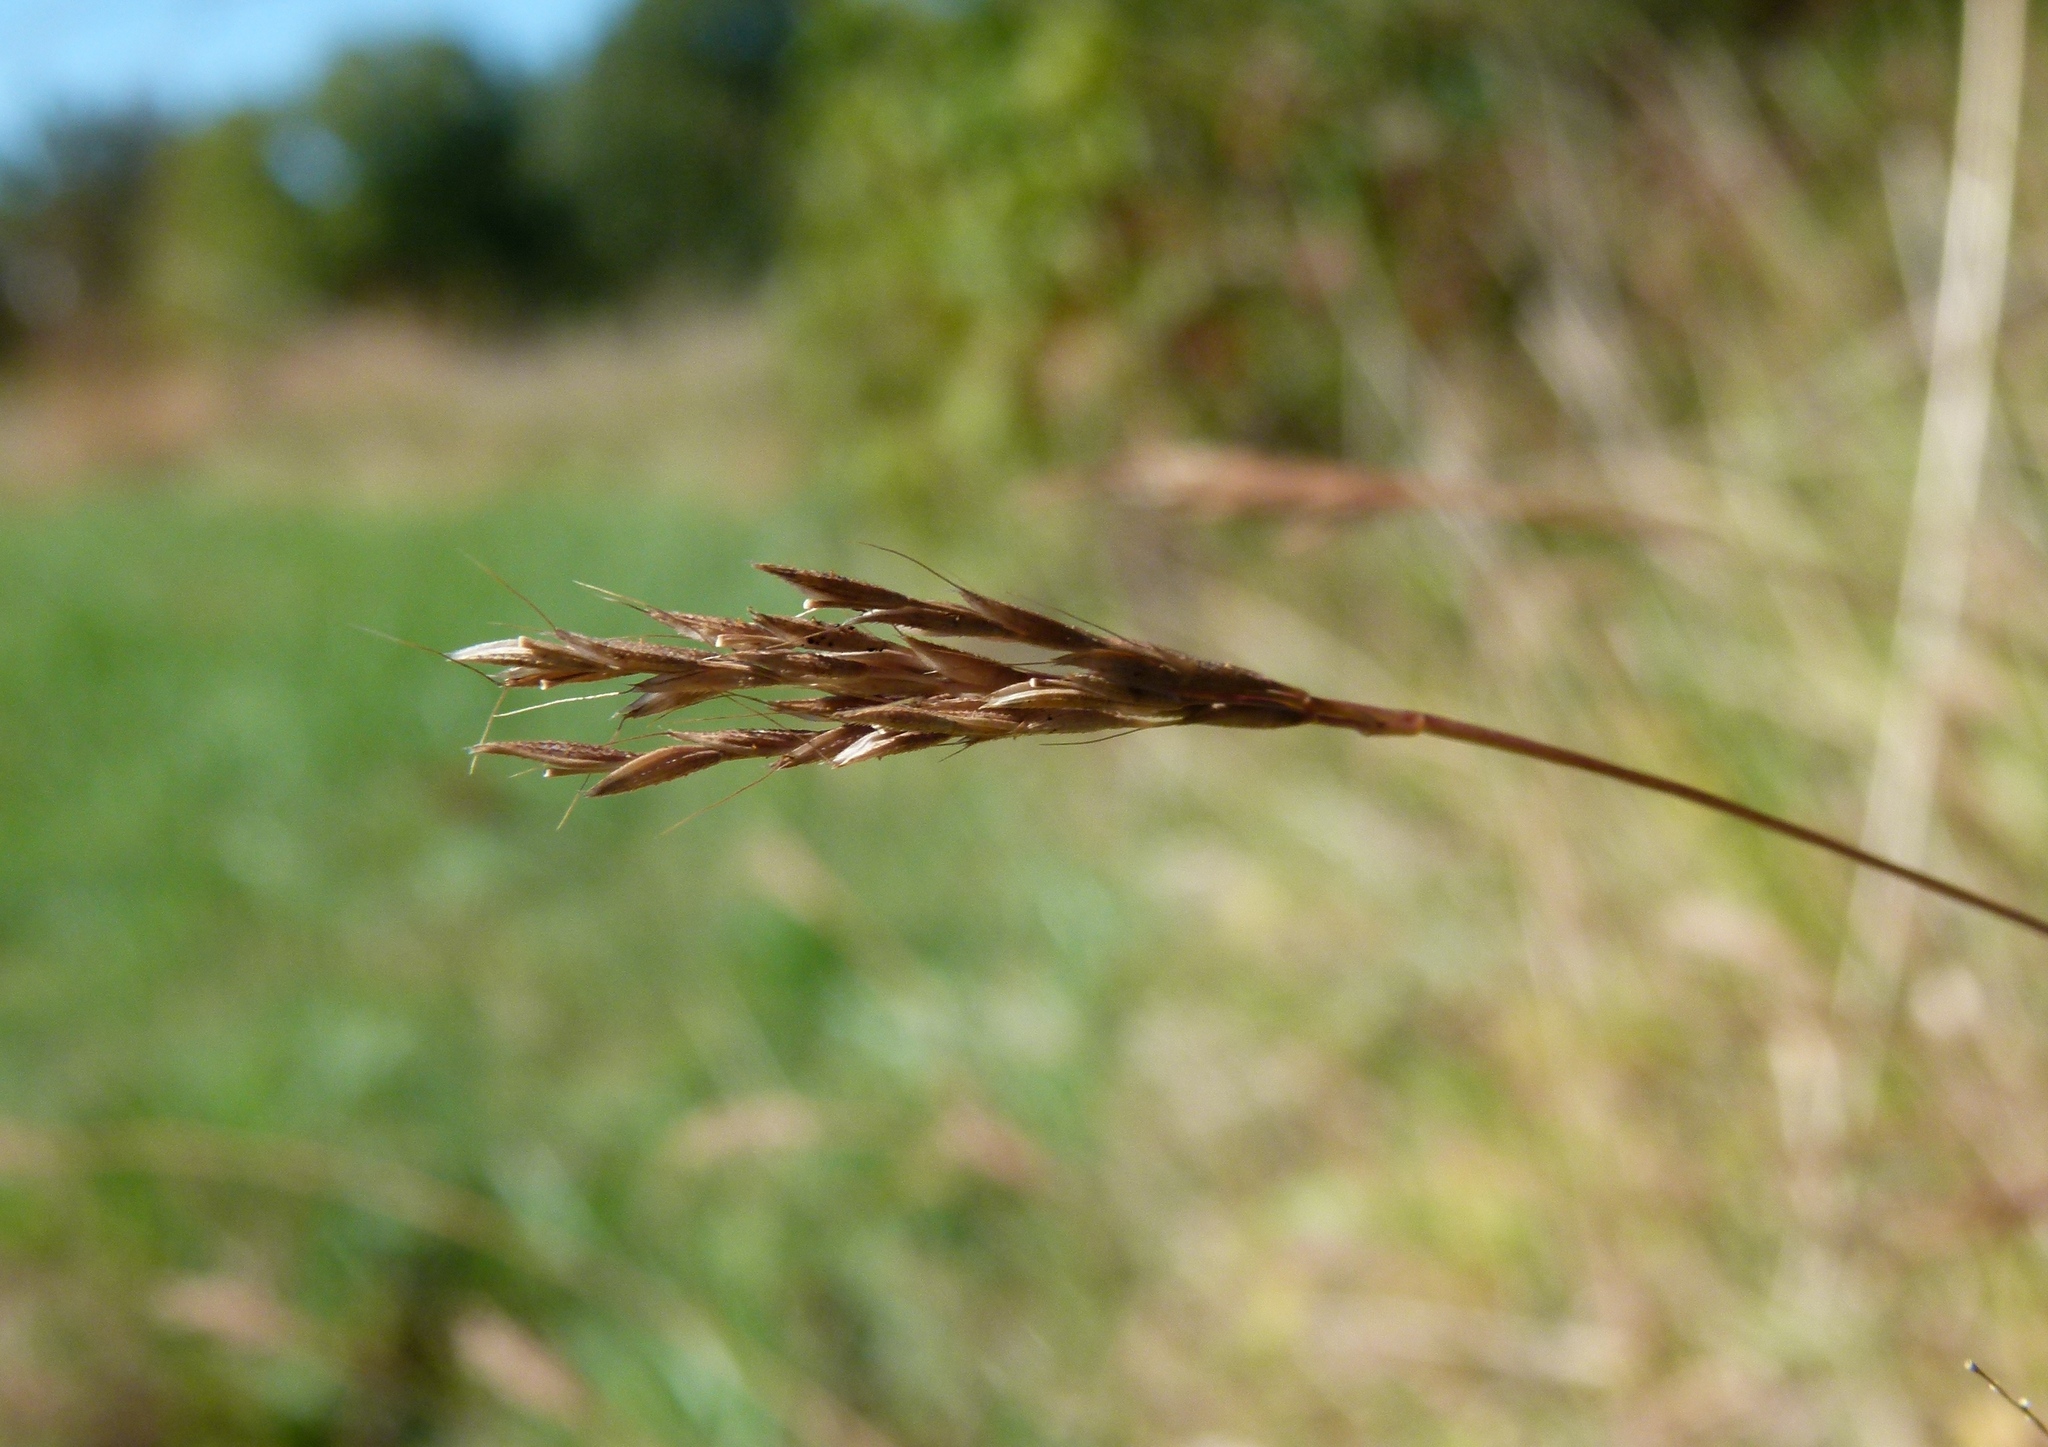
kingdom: Plantae
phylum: Tracheophyta
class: Liliopsida
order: Poales
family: Poaceae
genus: Arthraxon
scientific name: Arthraxon hispidus
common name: Small carpgrass
